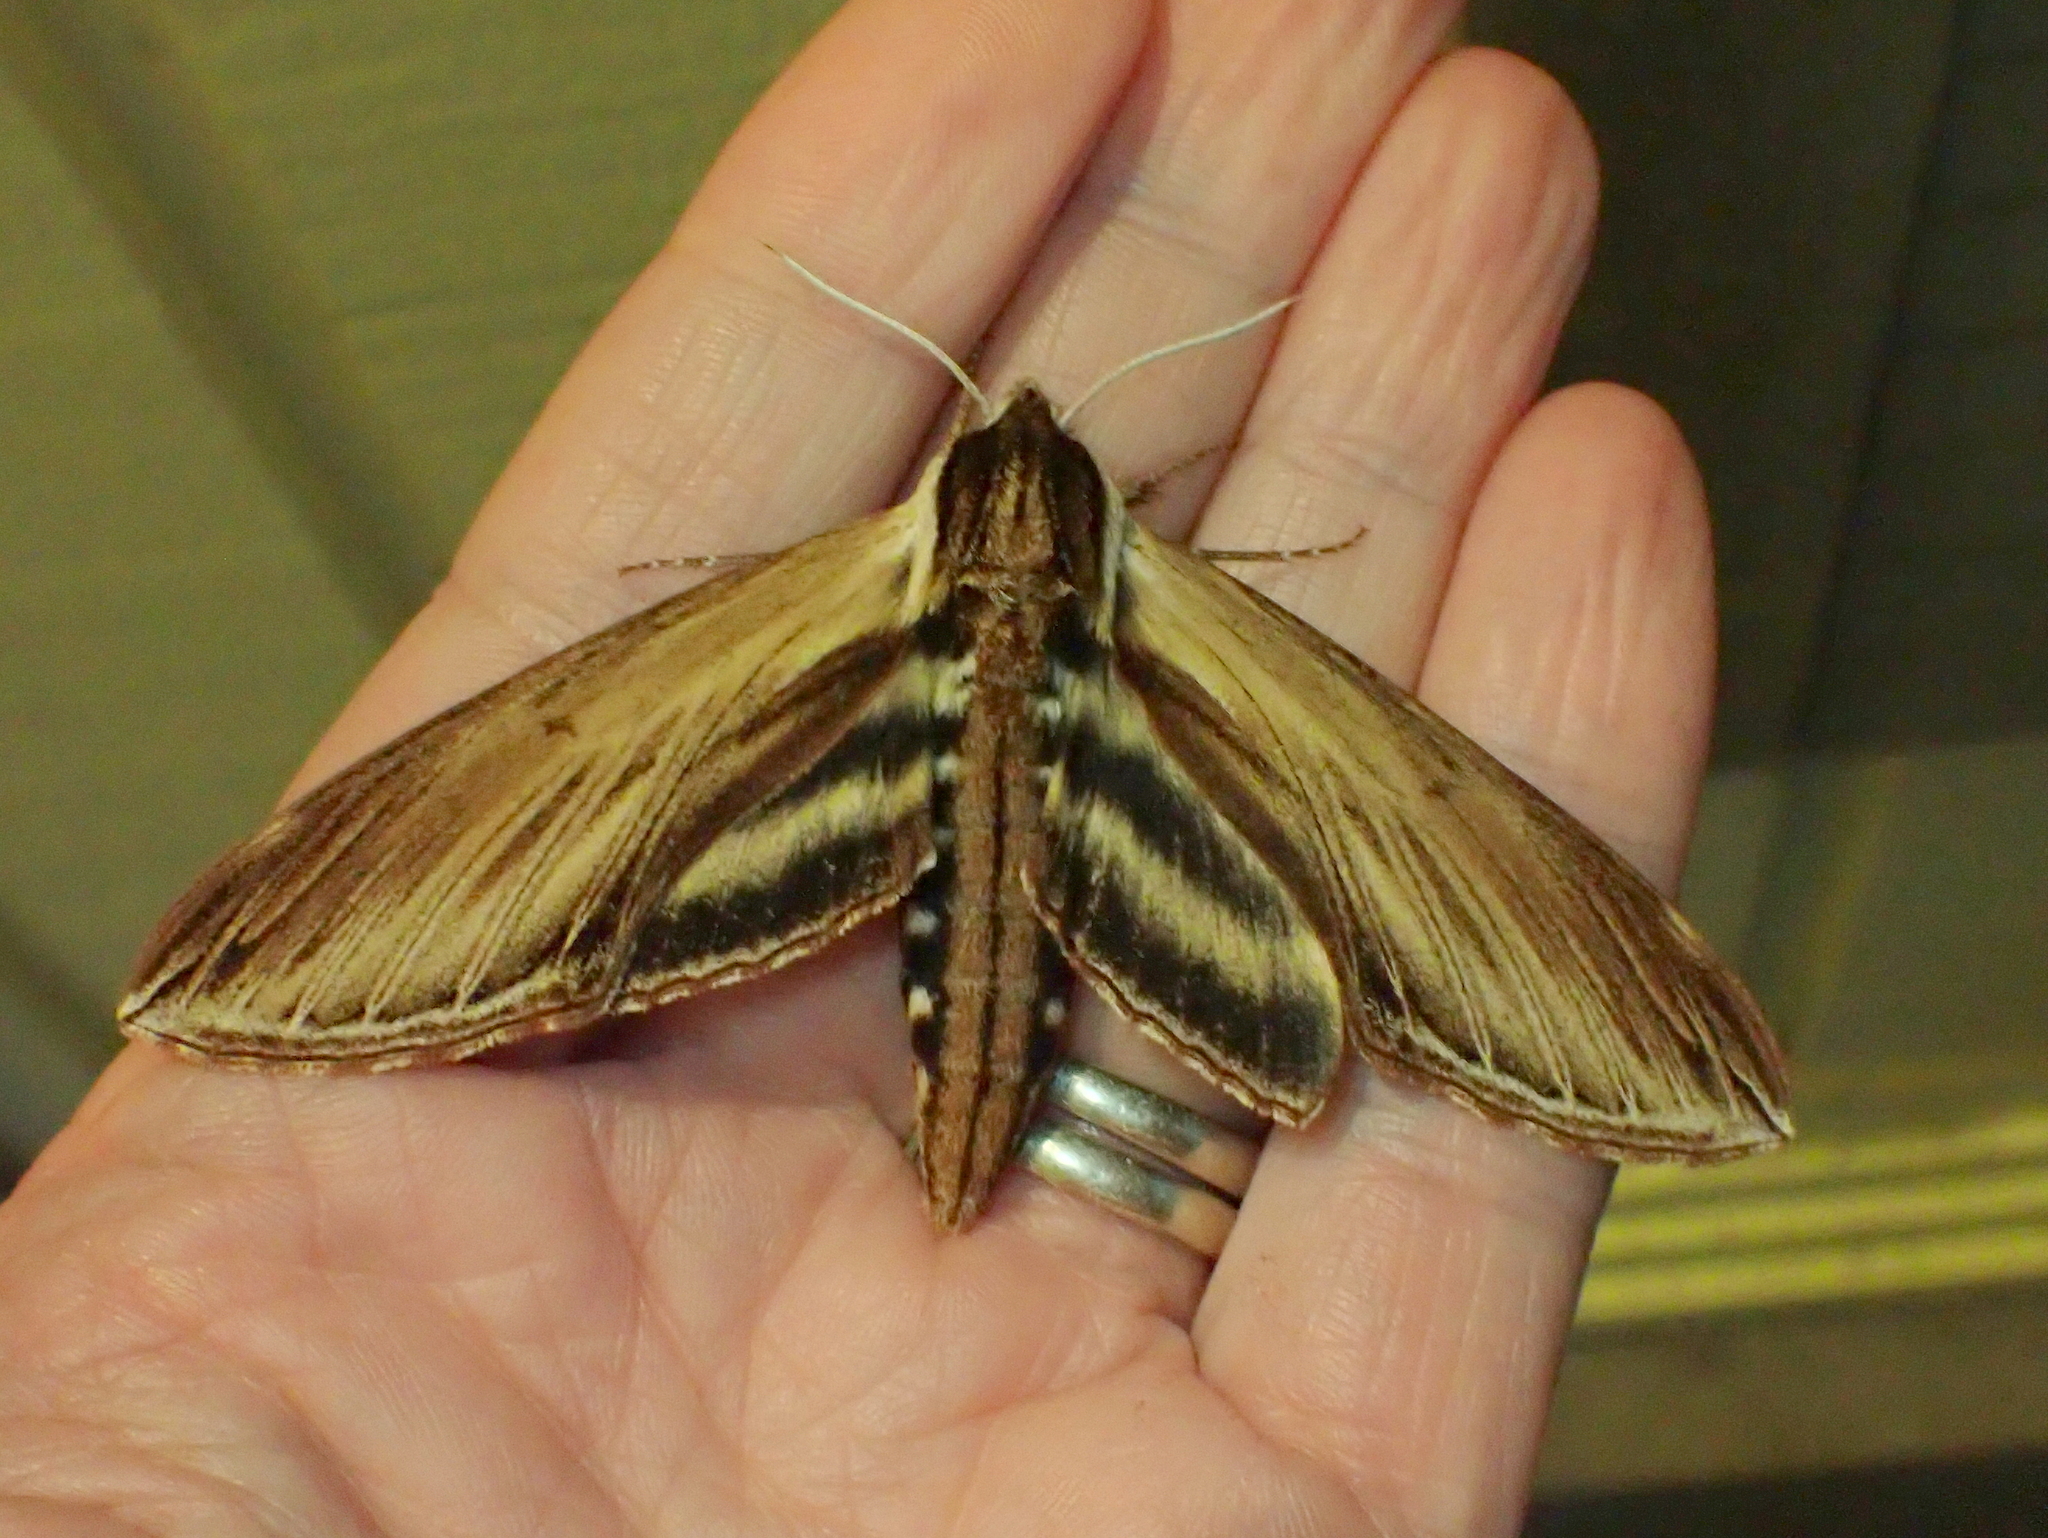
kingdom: Animalia
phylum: Arthropoda
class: Insecta
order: Lepidoptera
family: Sphingidae
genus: Sphinx
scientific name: Sphinx kalmiae
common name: Laurel sphinx
